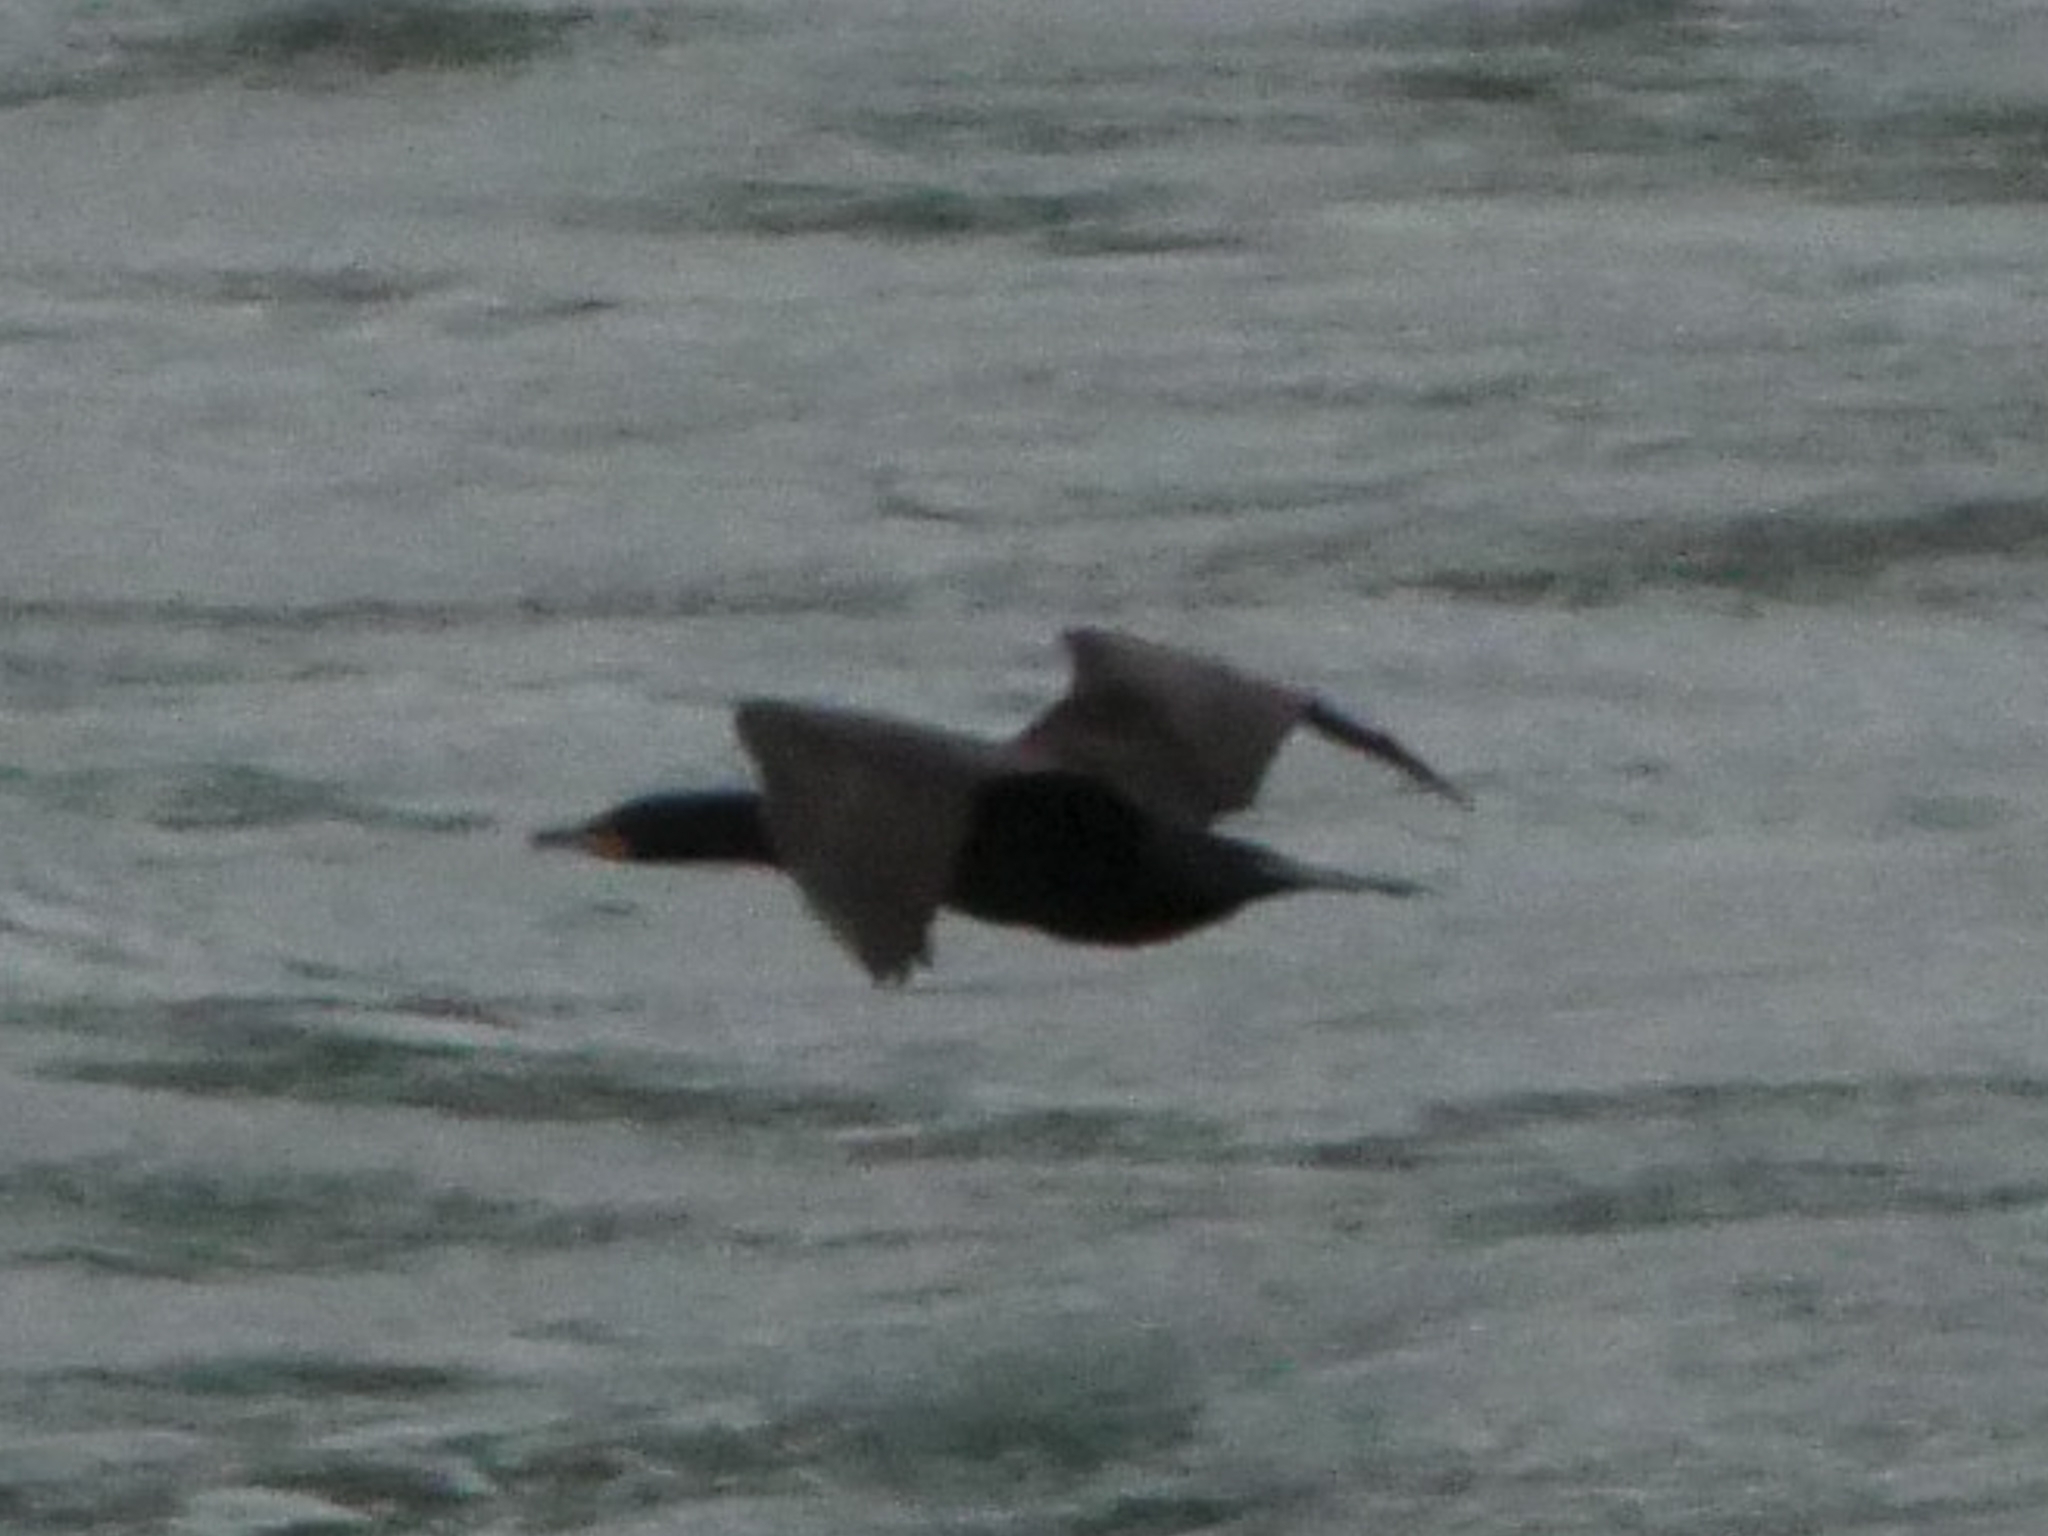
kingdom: Animalia
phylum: Chordata
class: Aves
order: Suliformes
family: Phalacrocoracidae
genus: Phalacrocorax
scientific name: Phalacrocorax auritus
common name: Double-crested cormorant
